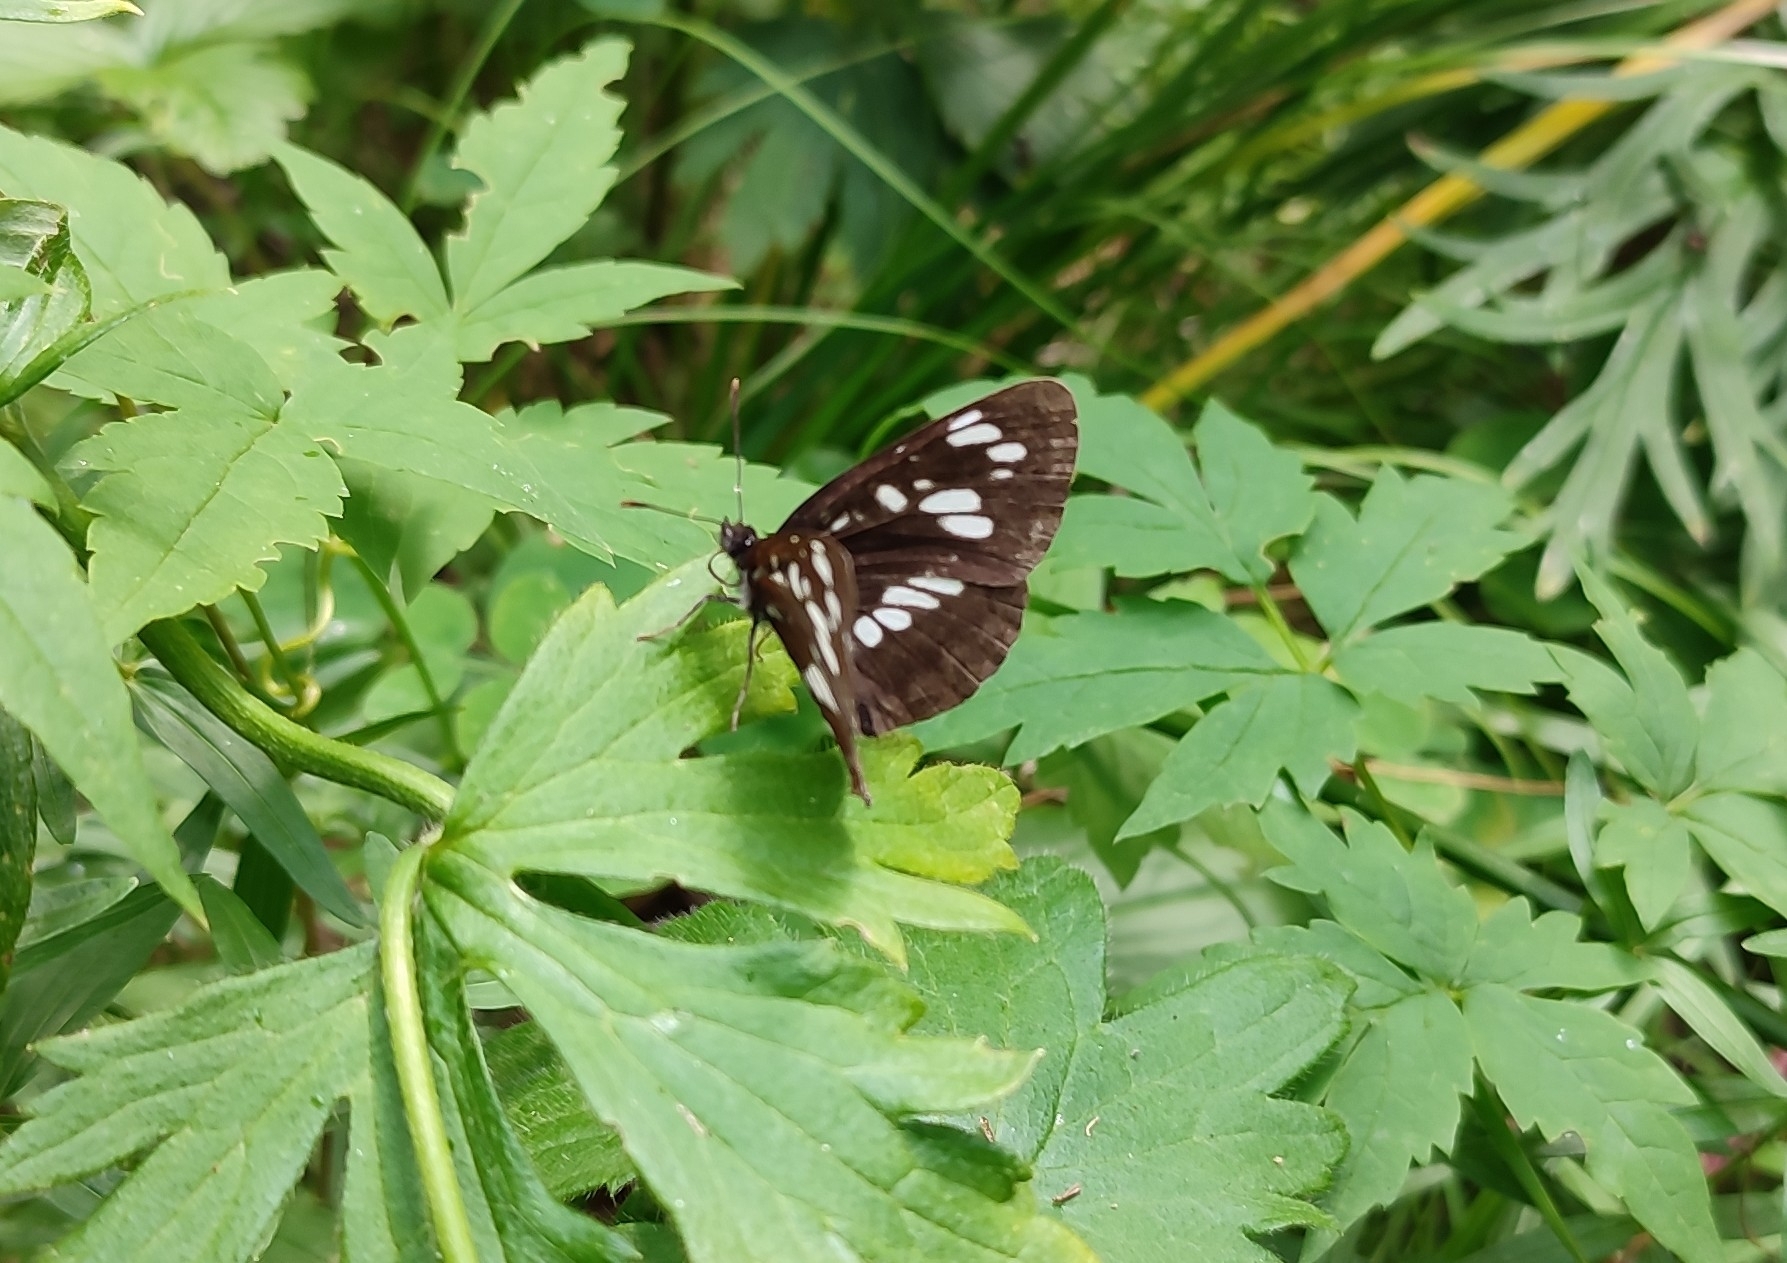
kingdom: Animalia
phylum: Arthropoda
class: Insecta
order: Lepidoptera
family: Nymphalidae
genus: Neptis
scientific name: Neptis rivularis
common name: Hungarian glider
